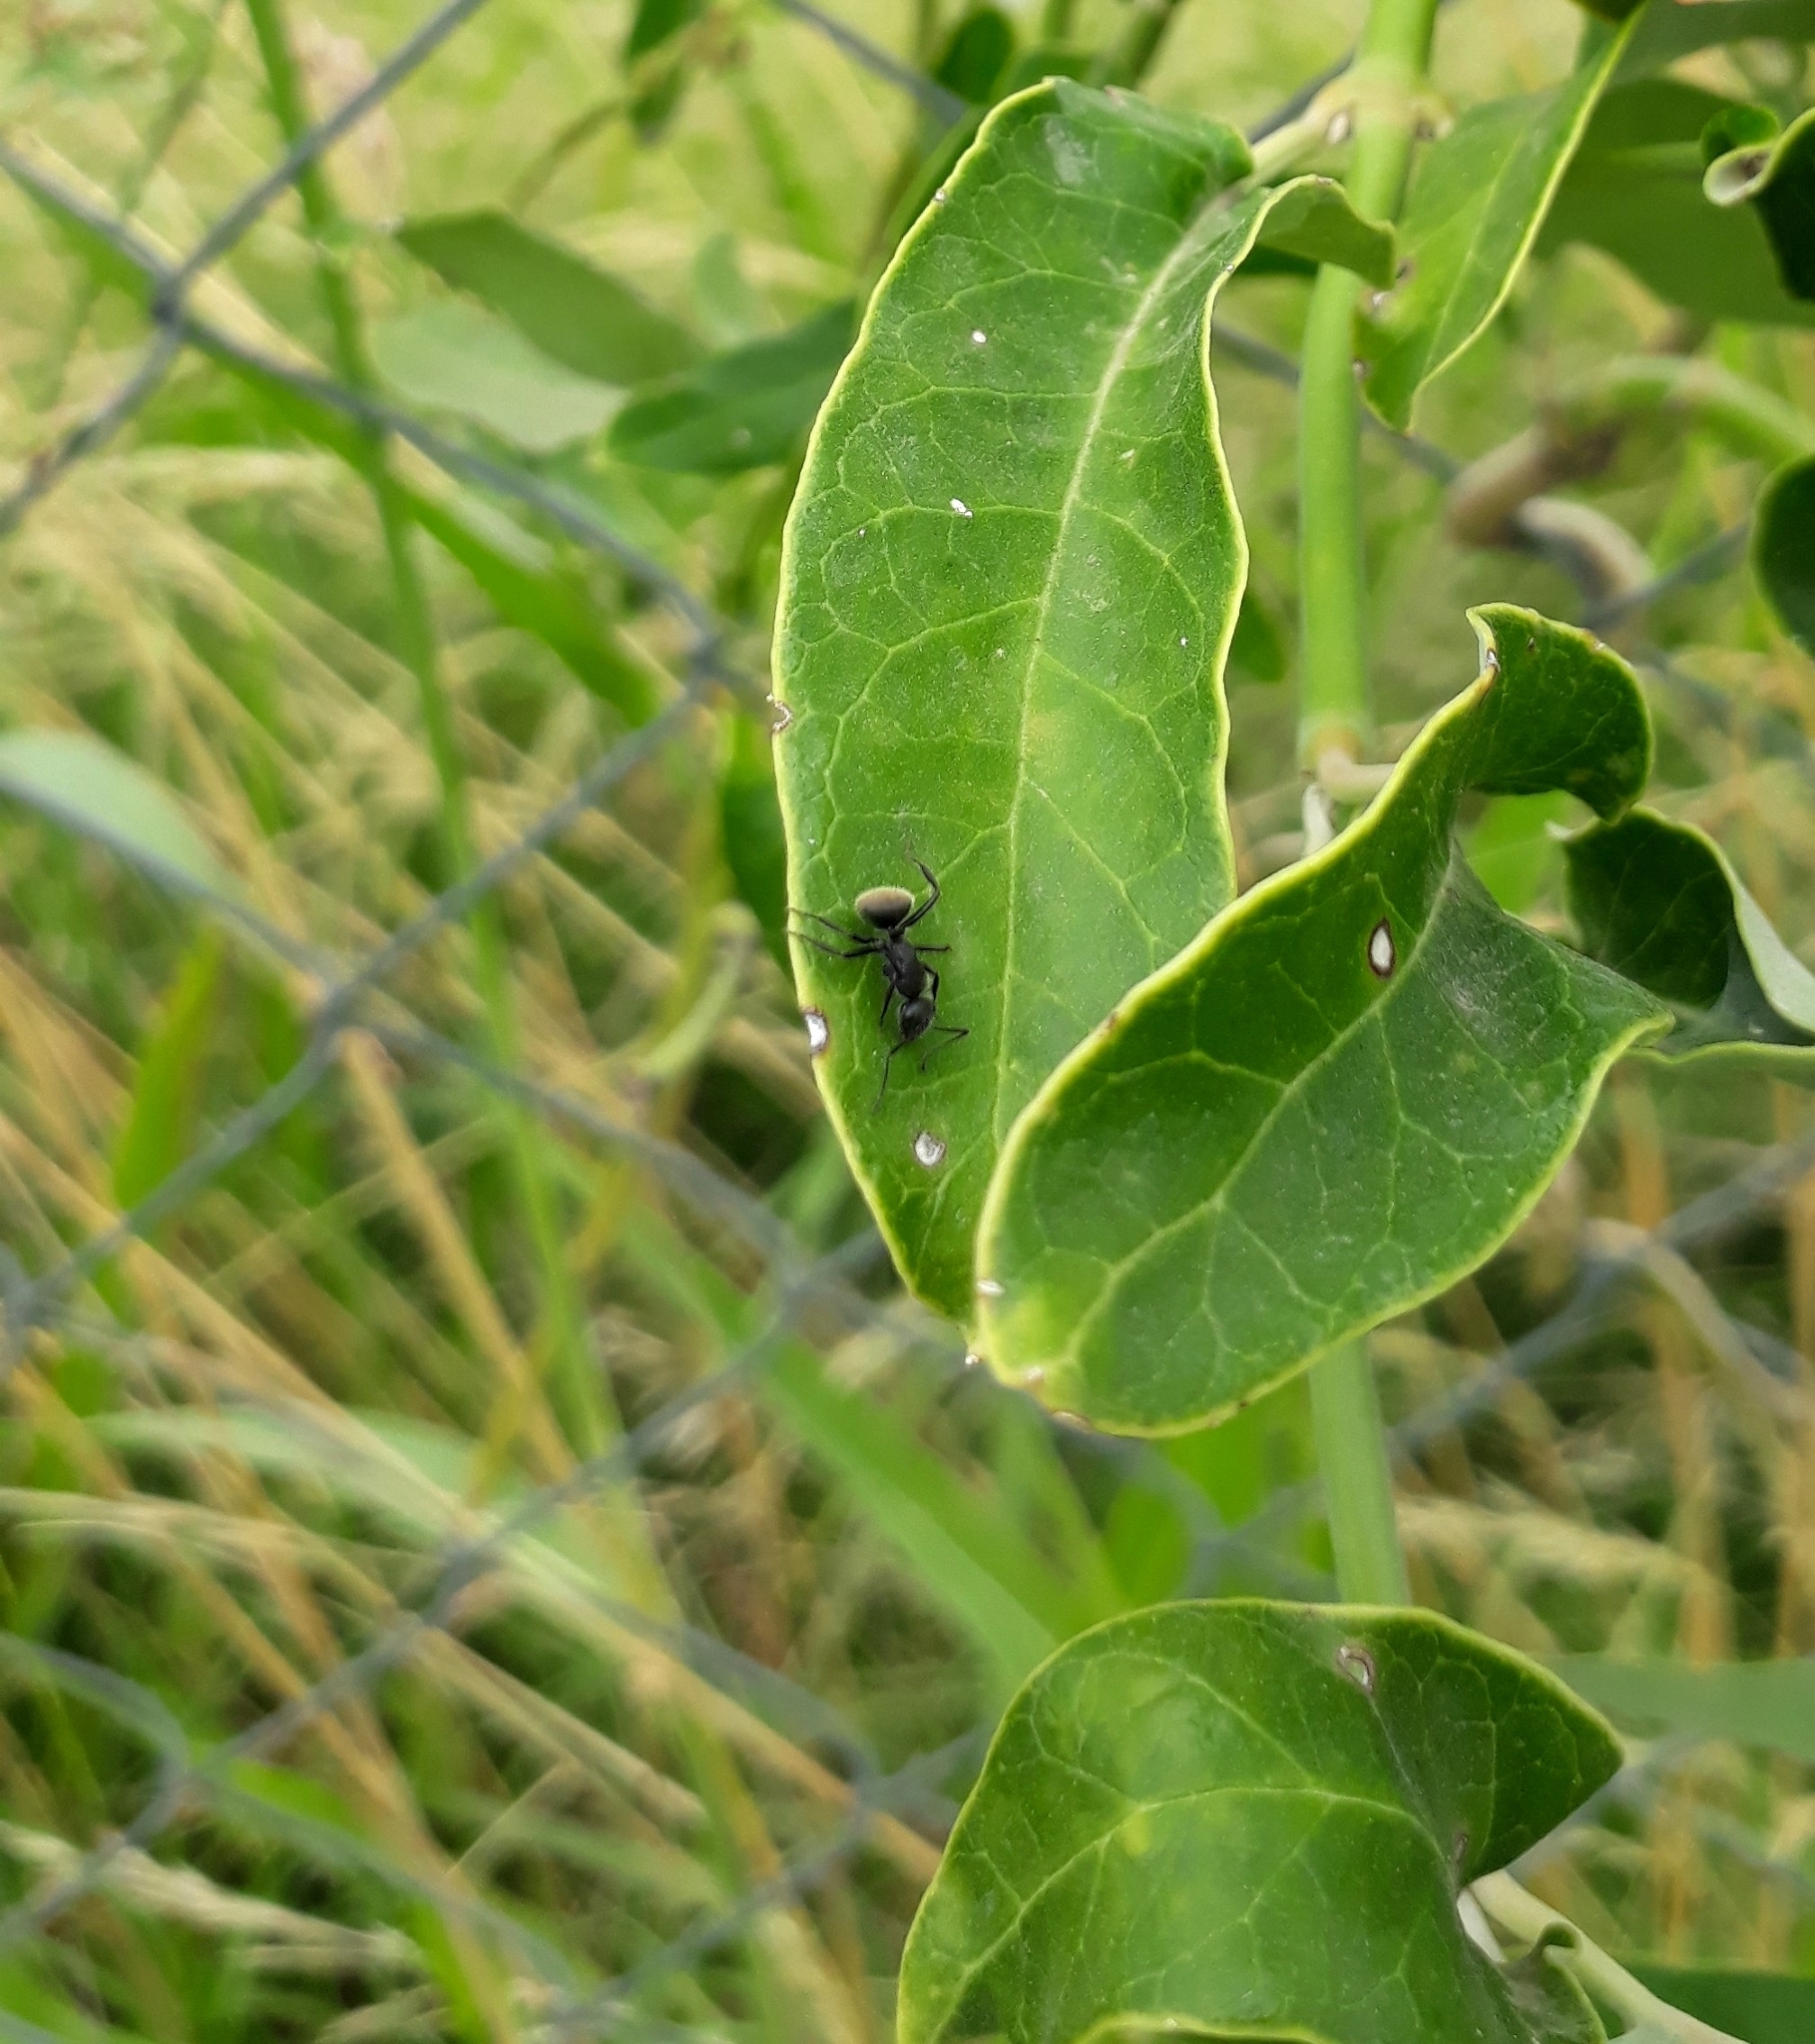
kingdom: Animalia
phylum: Arthropoda
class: Insecta
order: Hymenoptera
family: Formicidae
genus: Camponotus
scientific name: Camponotus mus
